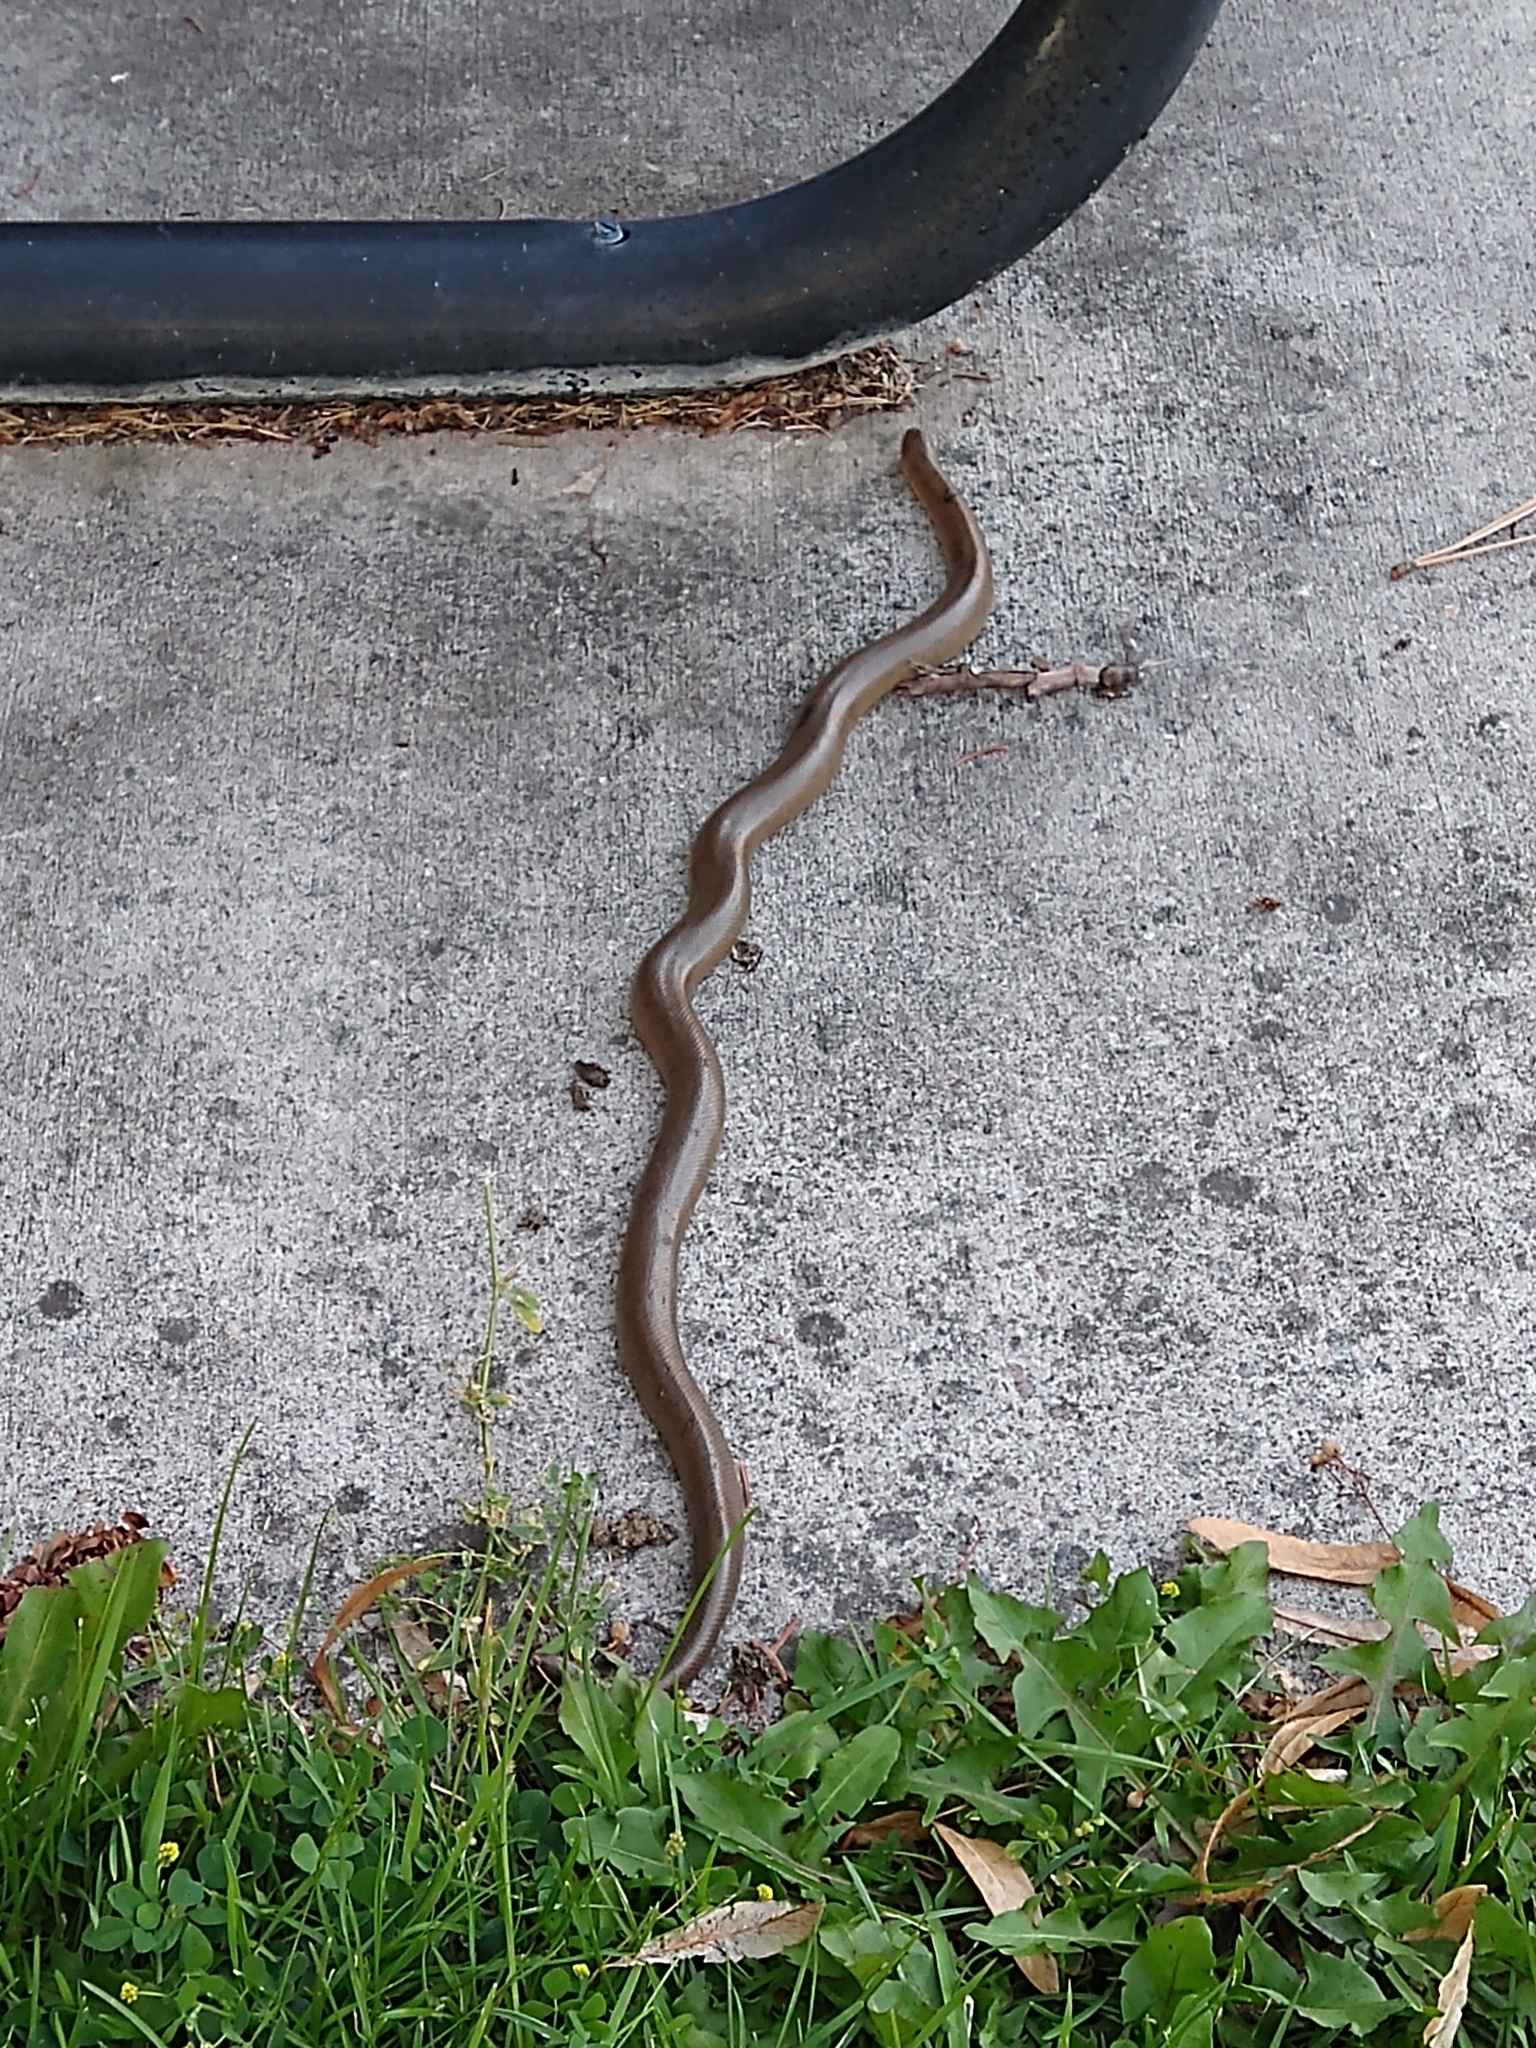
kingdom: Animalia
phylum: Chordata
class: Squamata
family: Boidae
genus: Charina
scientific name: Charina bottae
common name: Northern rubber boa
